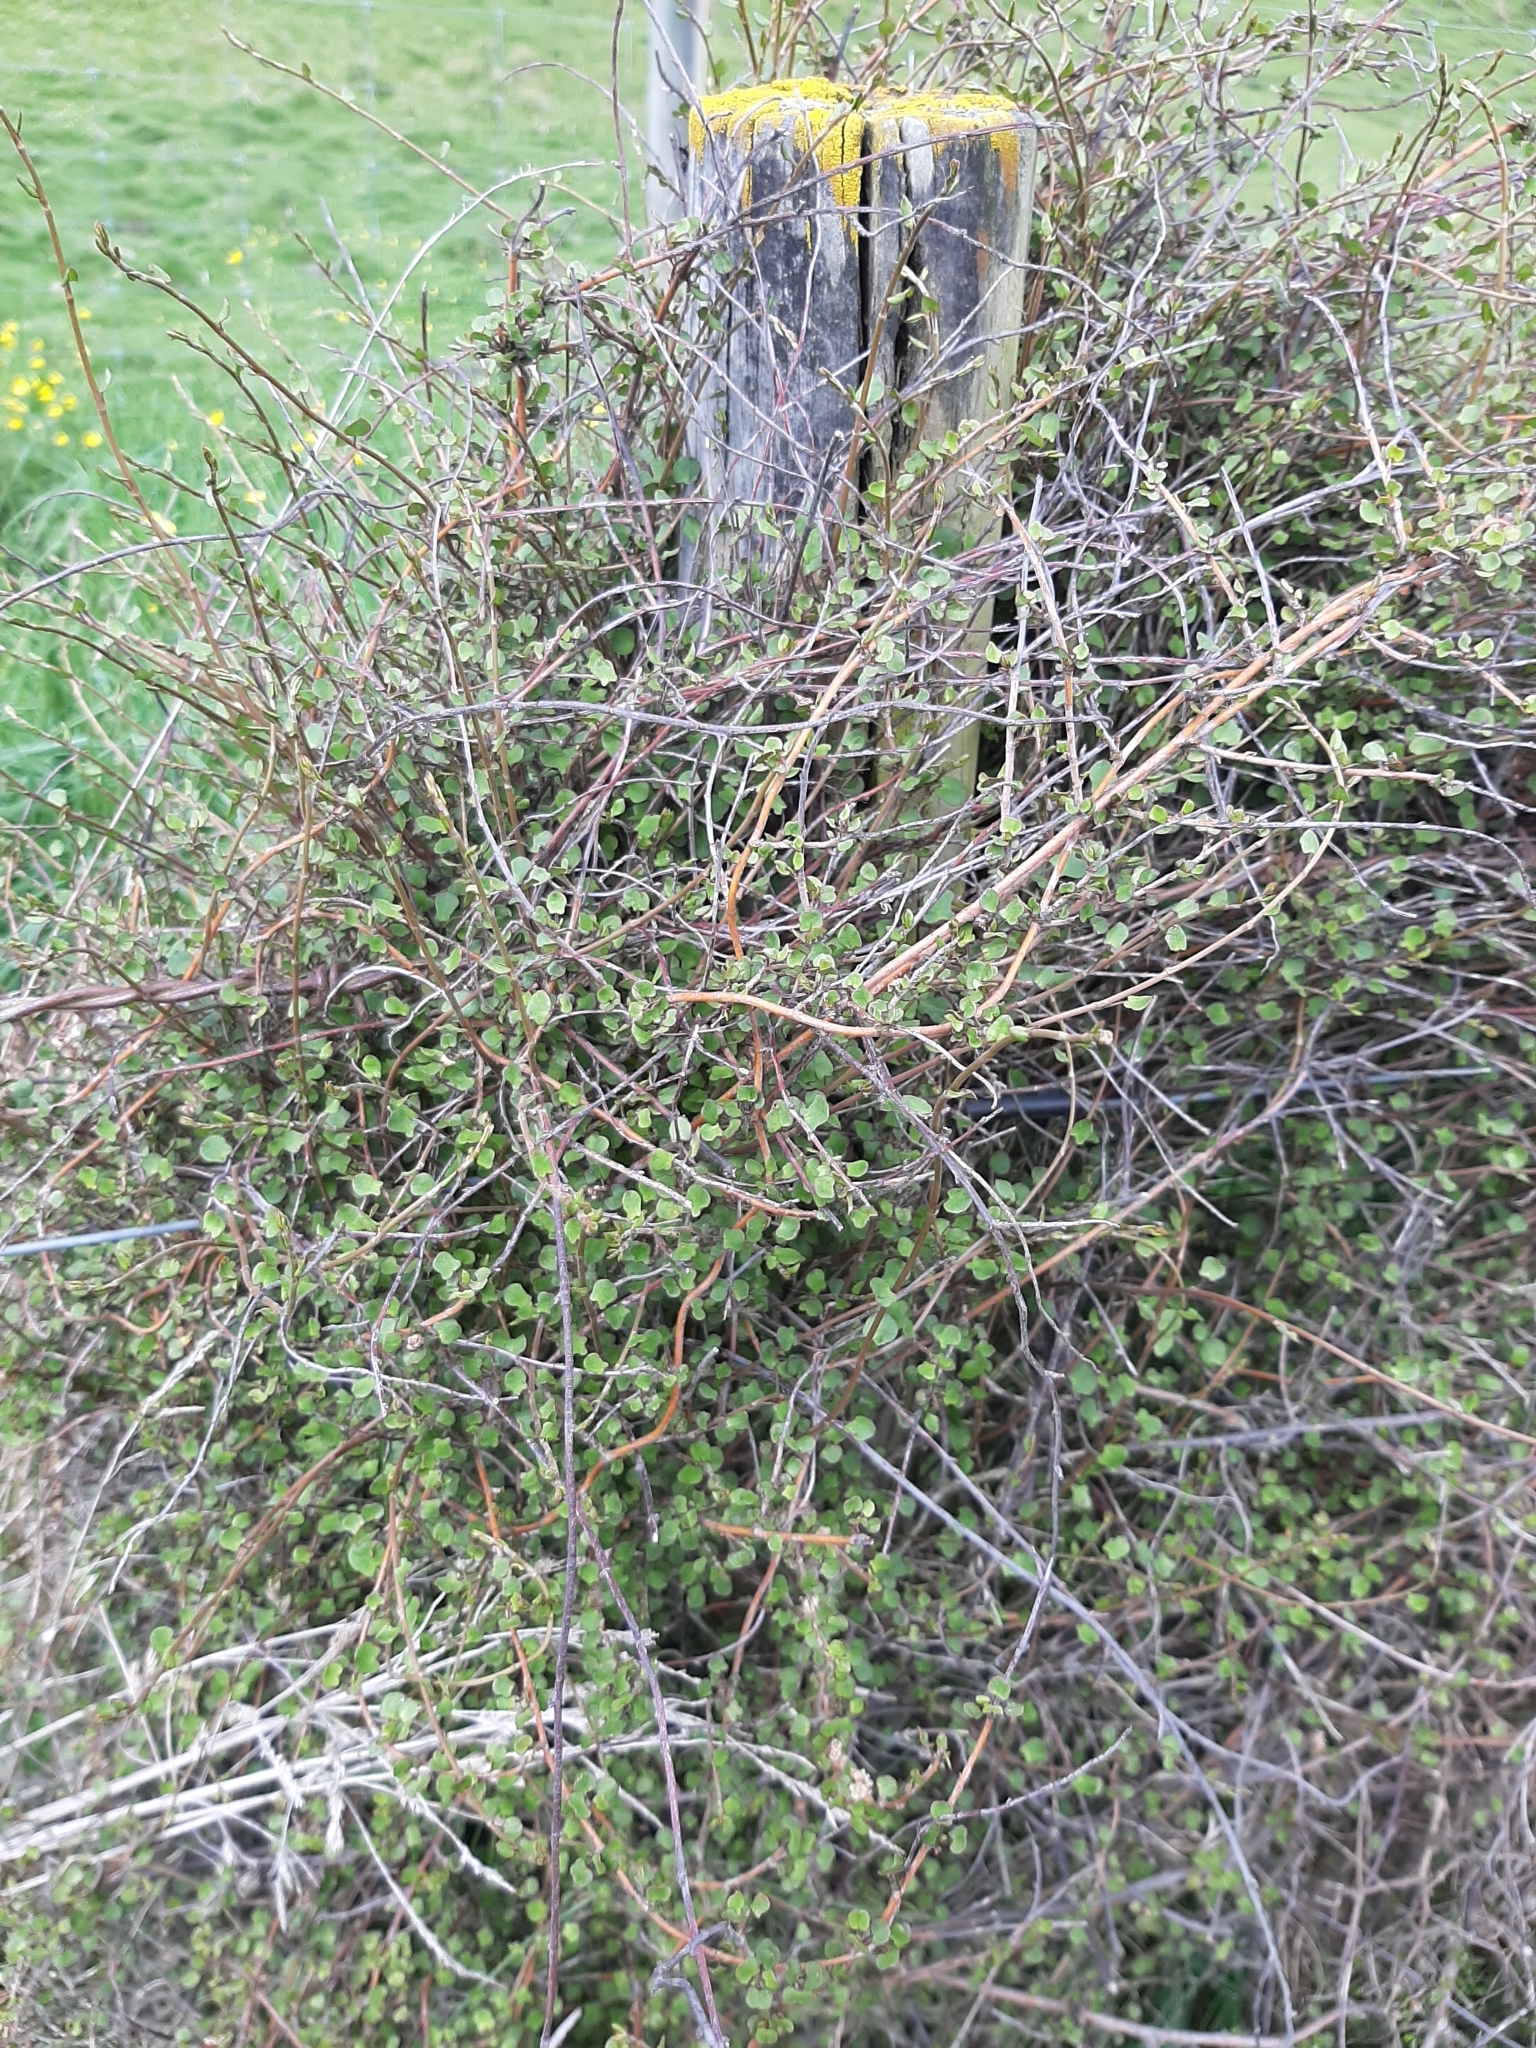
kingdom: Plantae
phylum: Tracheophyta
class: Magnoliopsida
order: Caryophyllales
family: Polygonaceae
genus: Muehlenbeckia
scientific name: Muehlenbeckia complexa
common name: Wireplant
